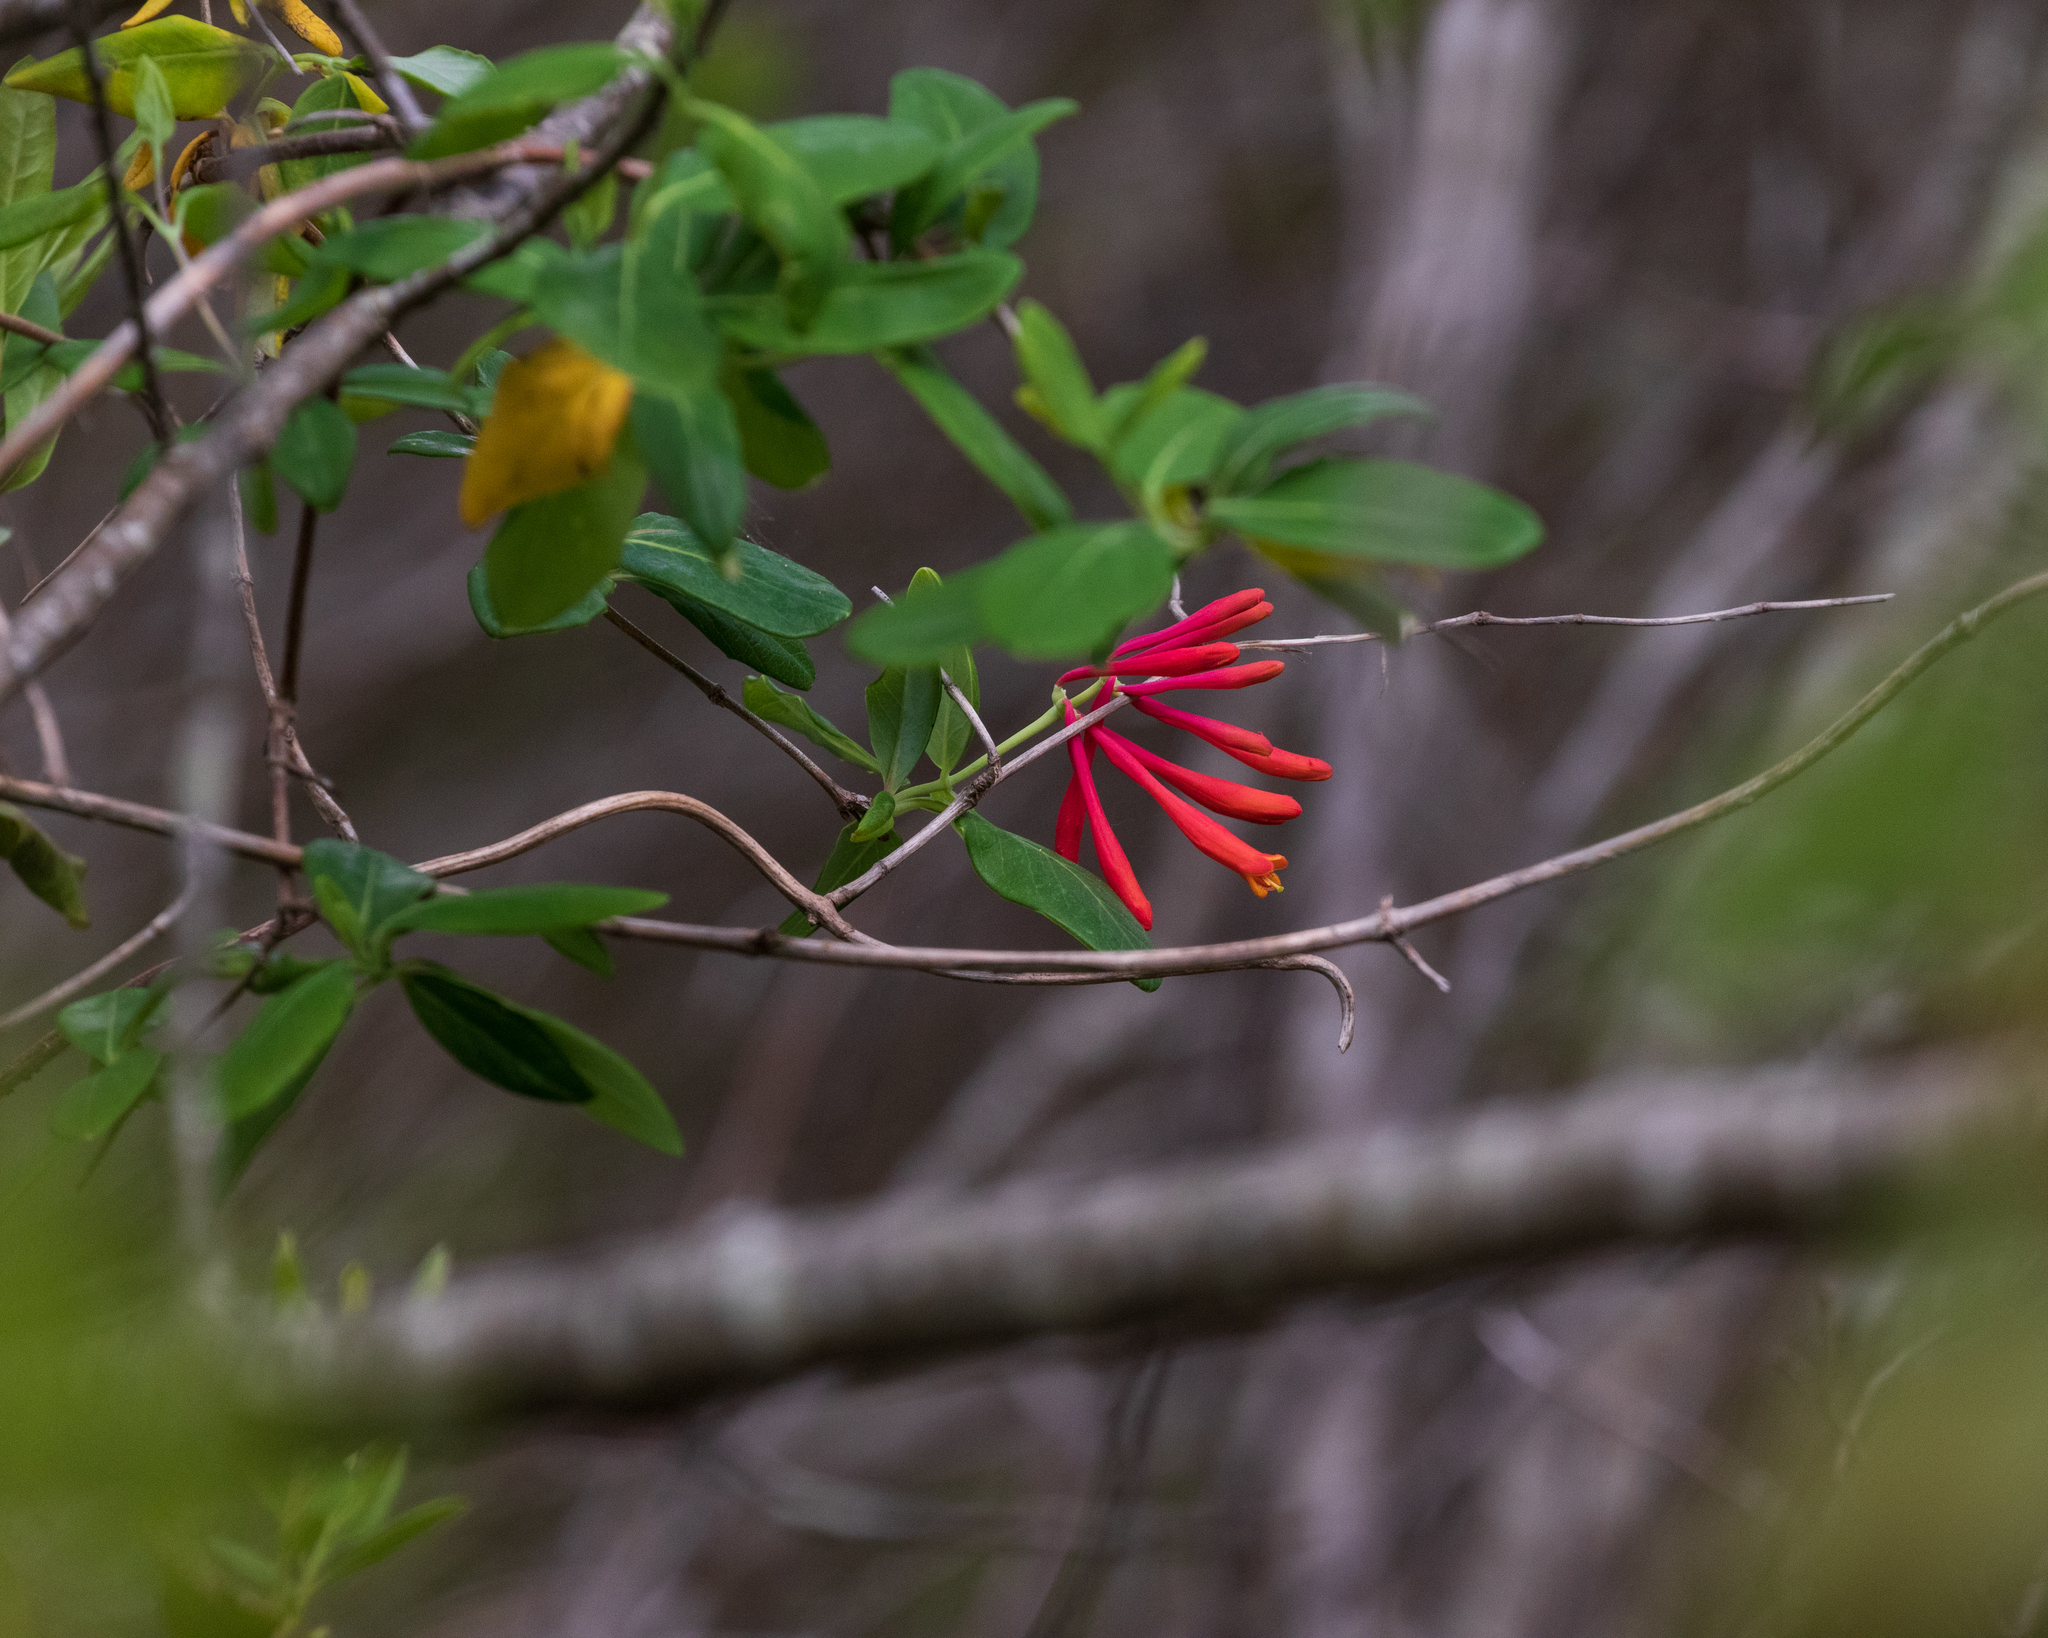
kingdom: Plantae
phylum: Tracheophyta
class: Magnoliopsida
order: Dipsacales
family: Caprifoliaceae
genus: Lonicera
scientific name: Lonicera sempervirens
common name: Coral honeysuckle
